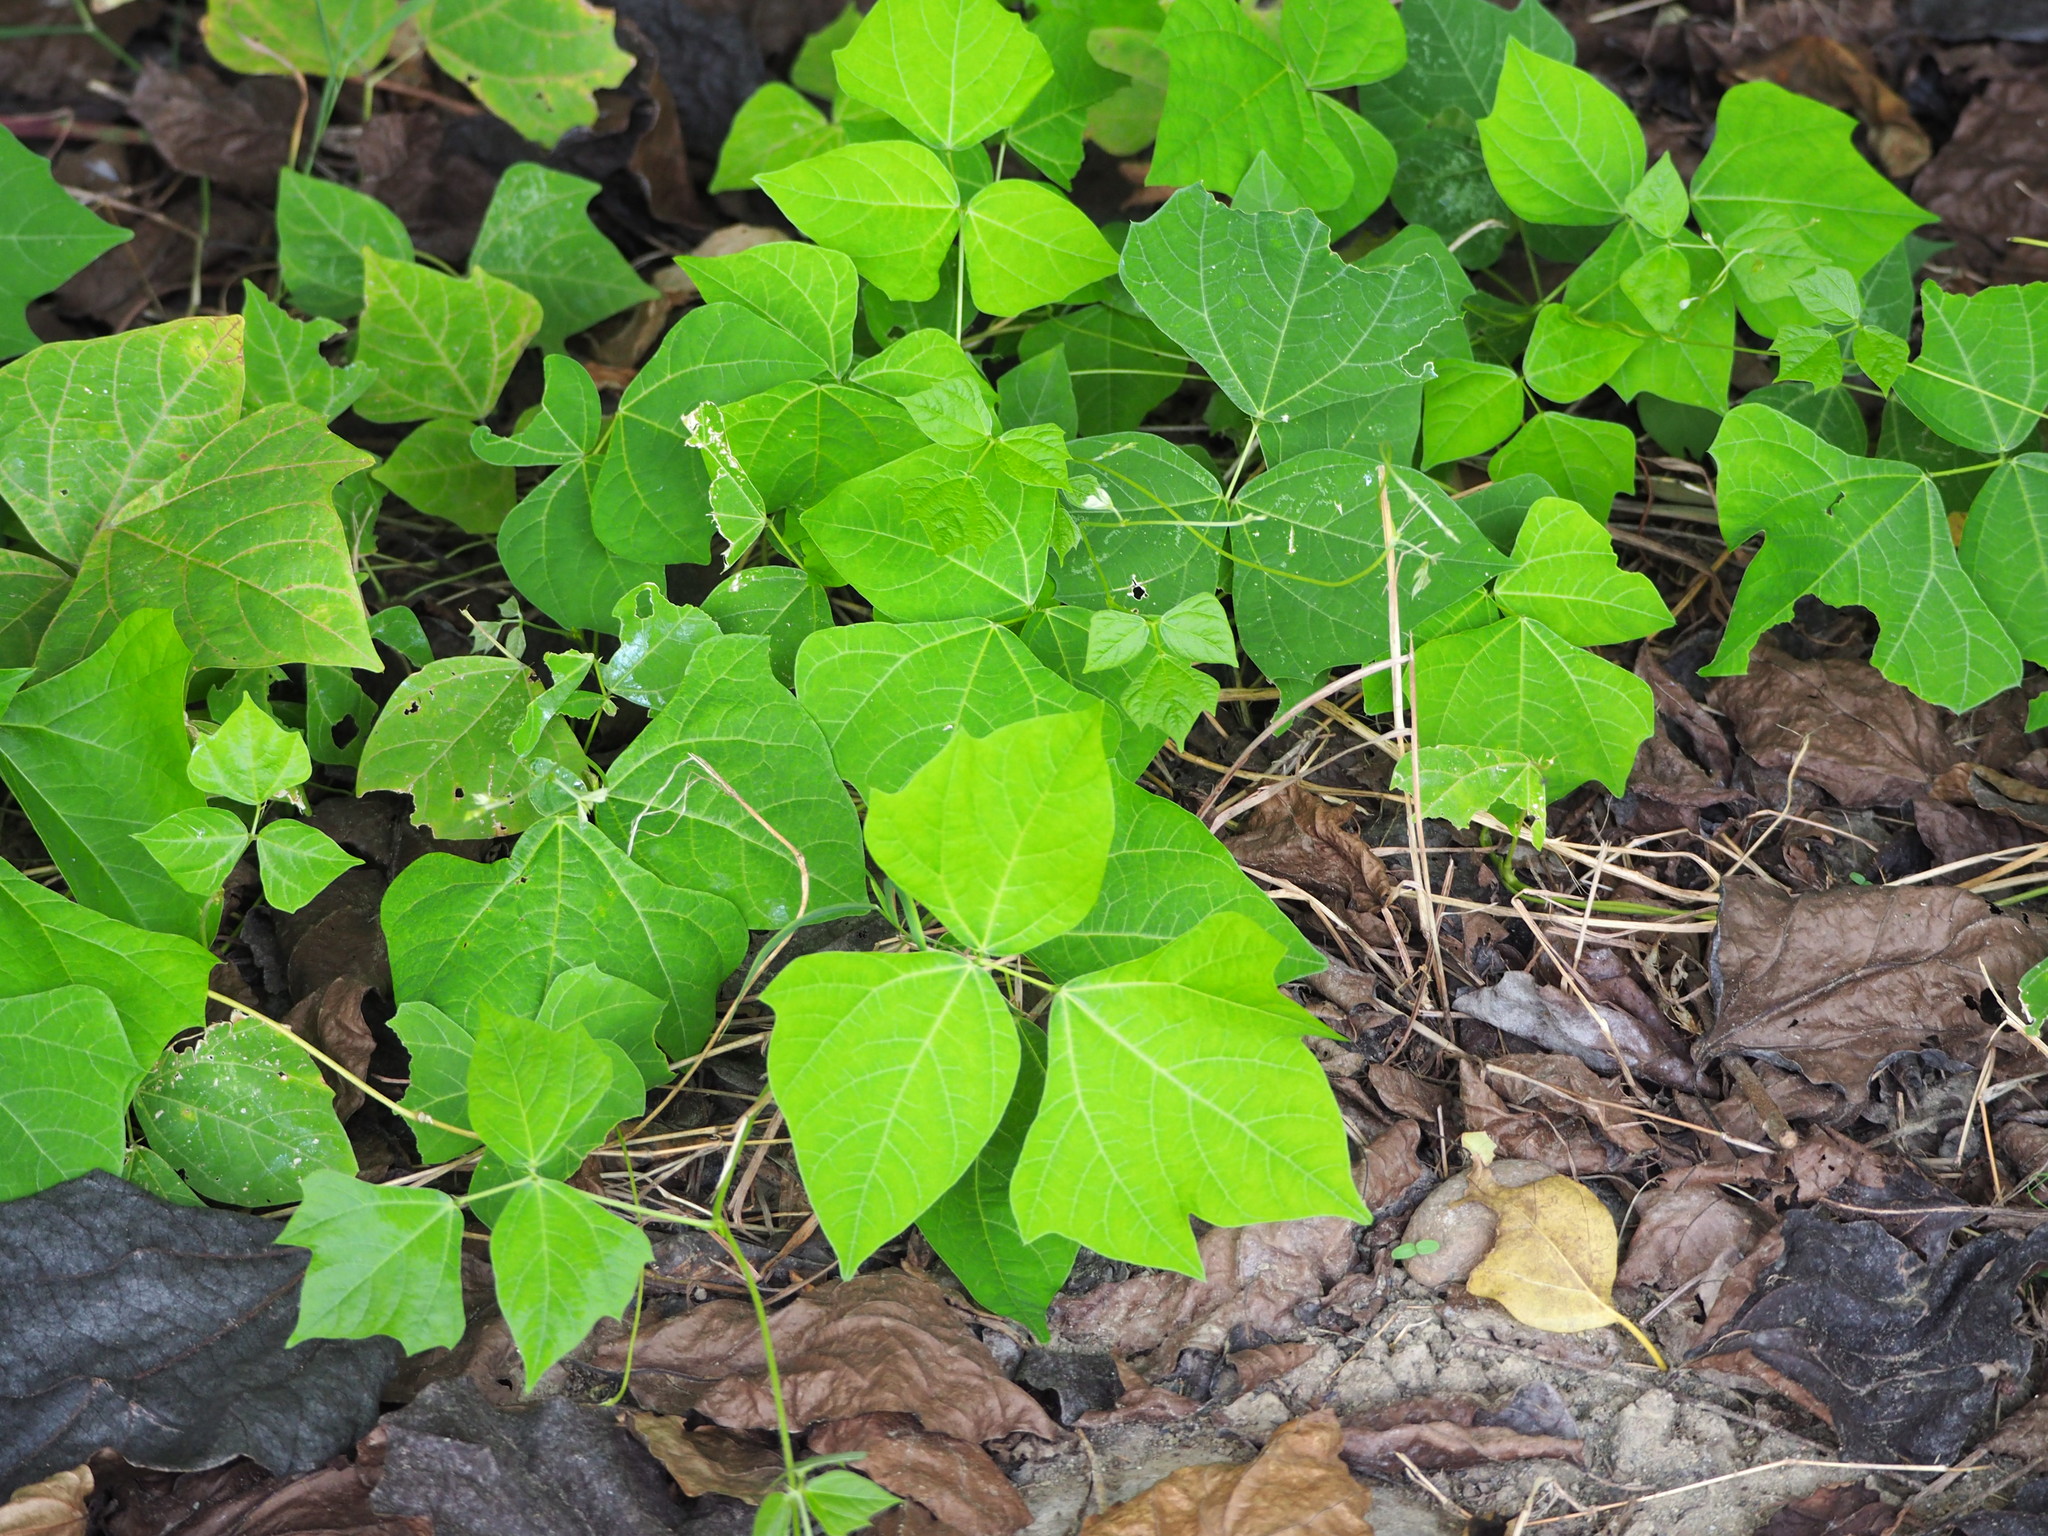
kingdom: Plantae
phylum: Tracheophyta
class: Magnoliopsida
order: Fabales
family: Fabaceae
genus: Pachyrhizus
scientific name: Pachyrhizus erosus
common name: Yam bean
